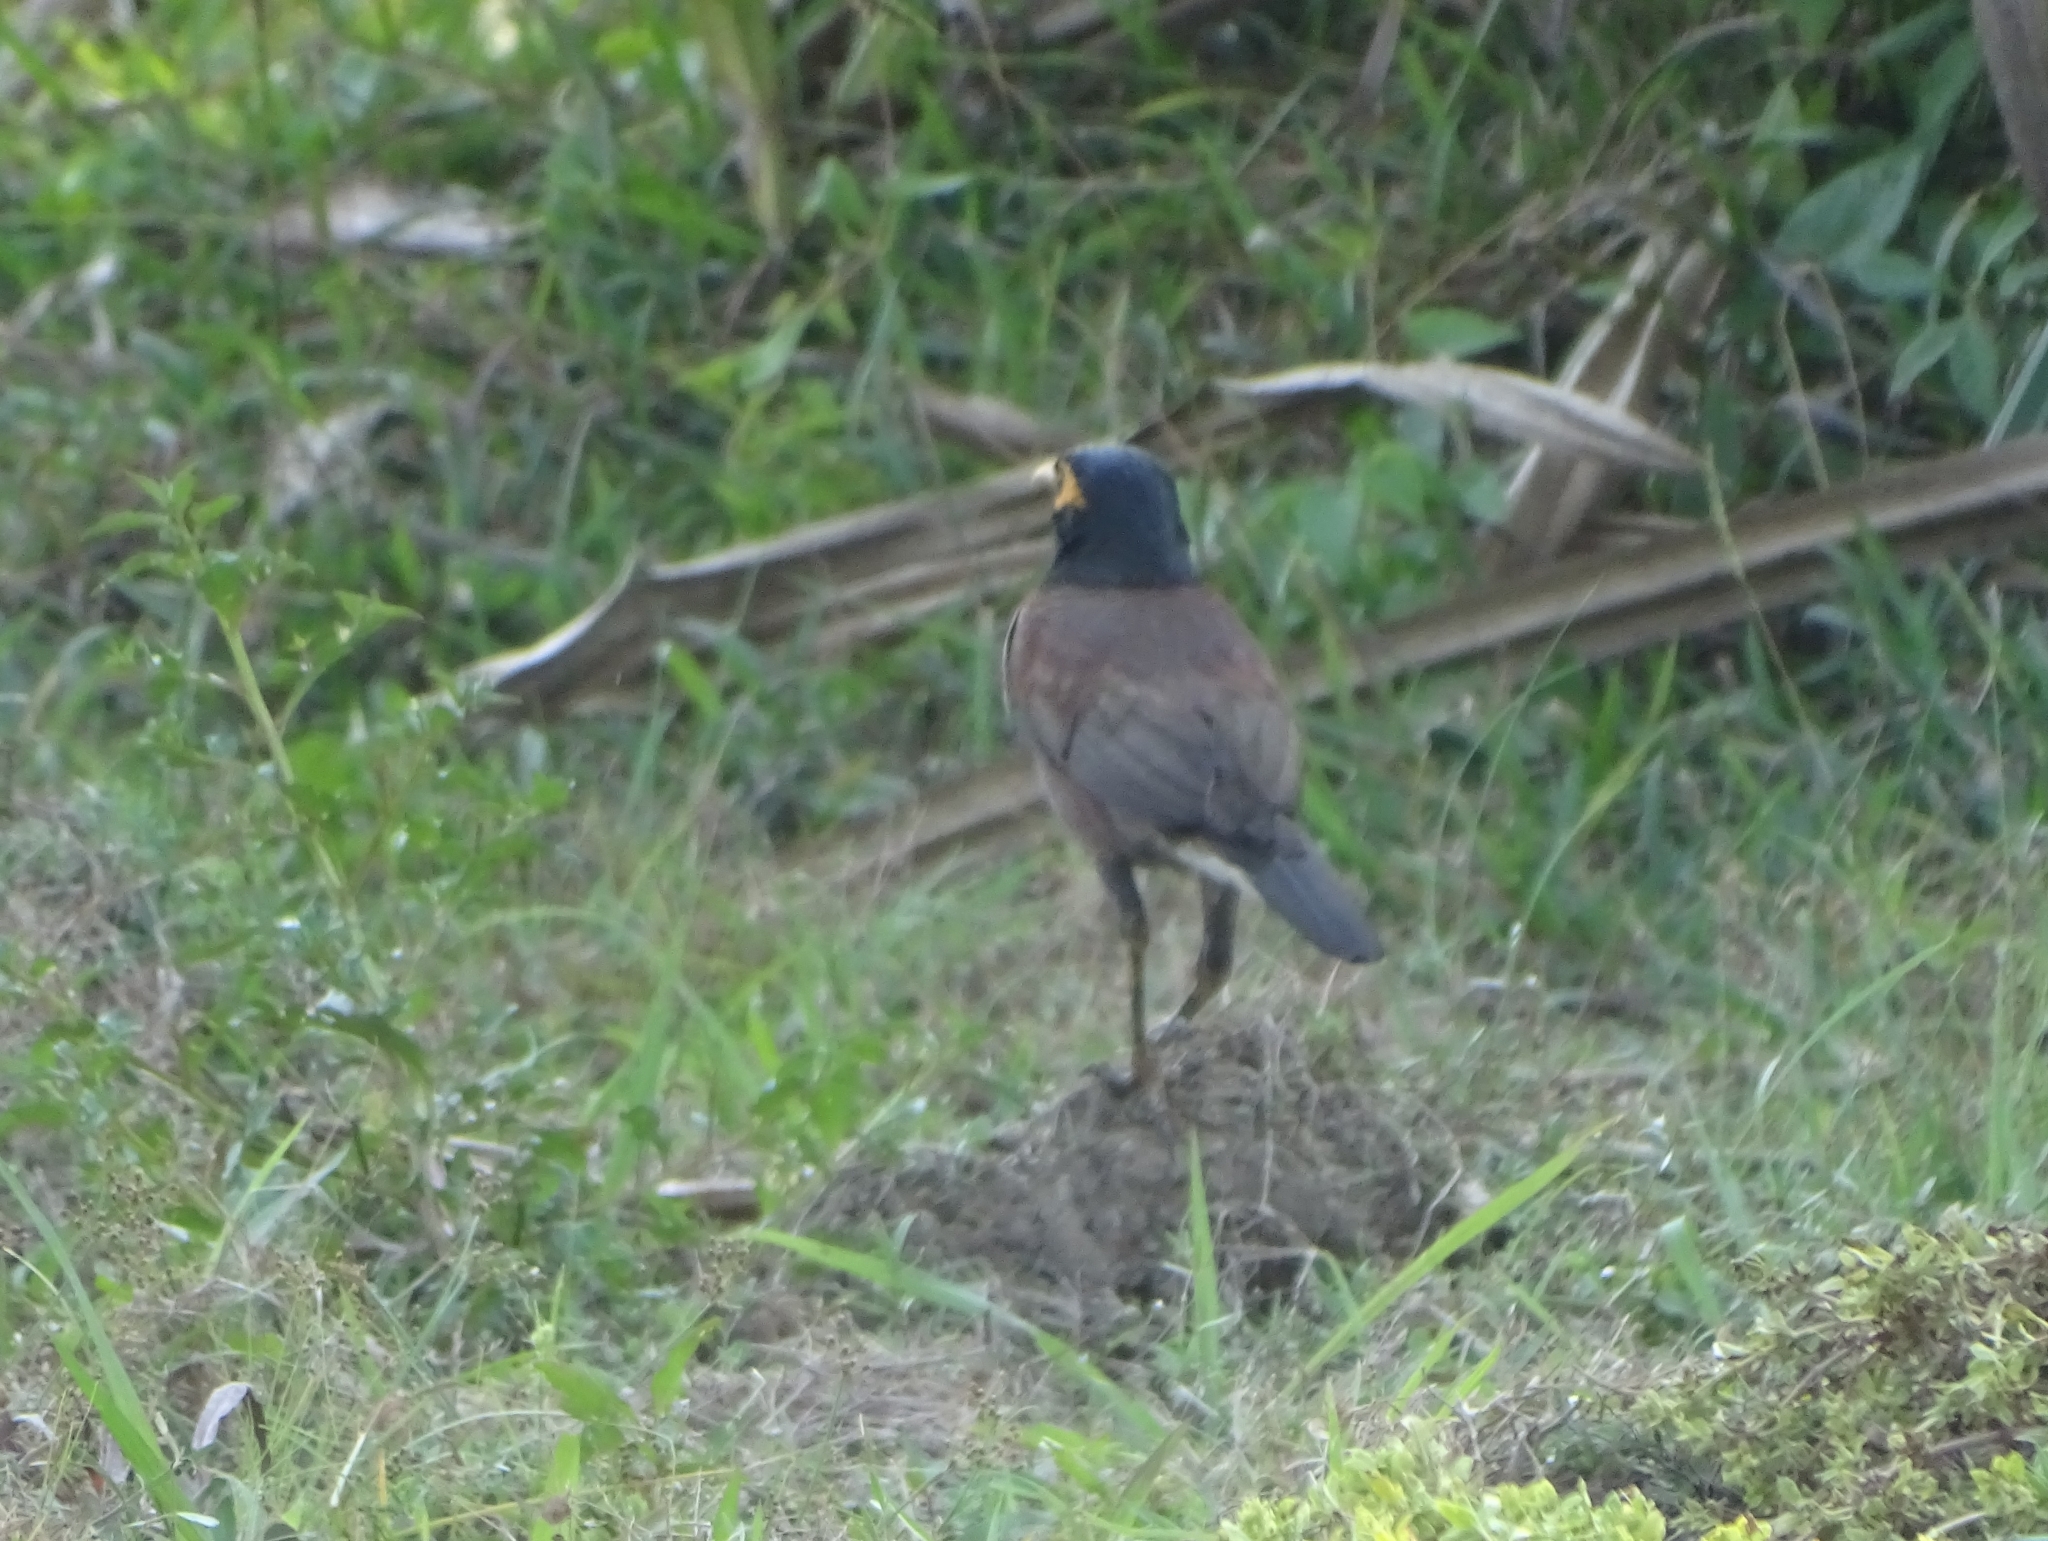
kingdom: Animalia
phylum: Chordata
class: Aves
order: Passeriformes
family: Sturnidae
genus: Acridotheres
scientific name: Acridotheres tristis
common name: Common myna
